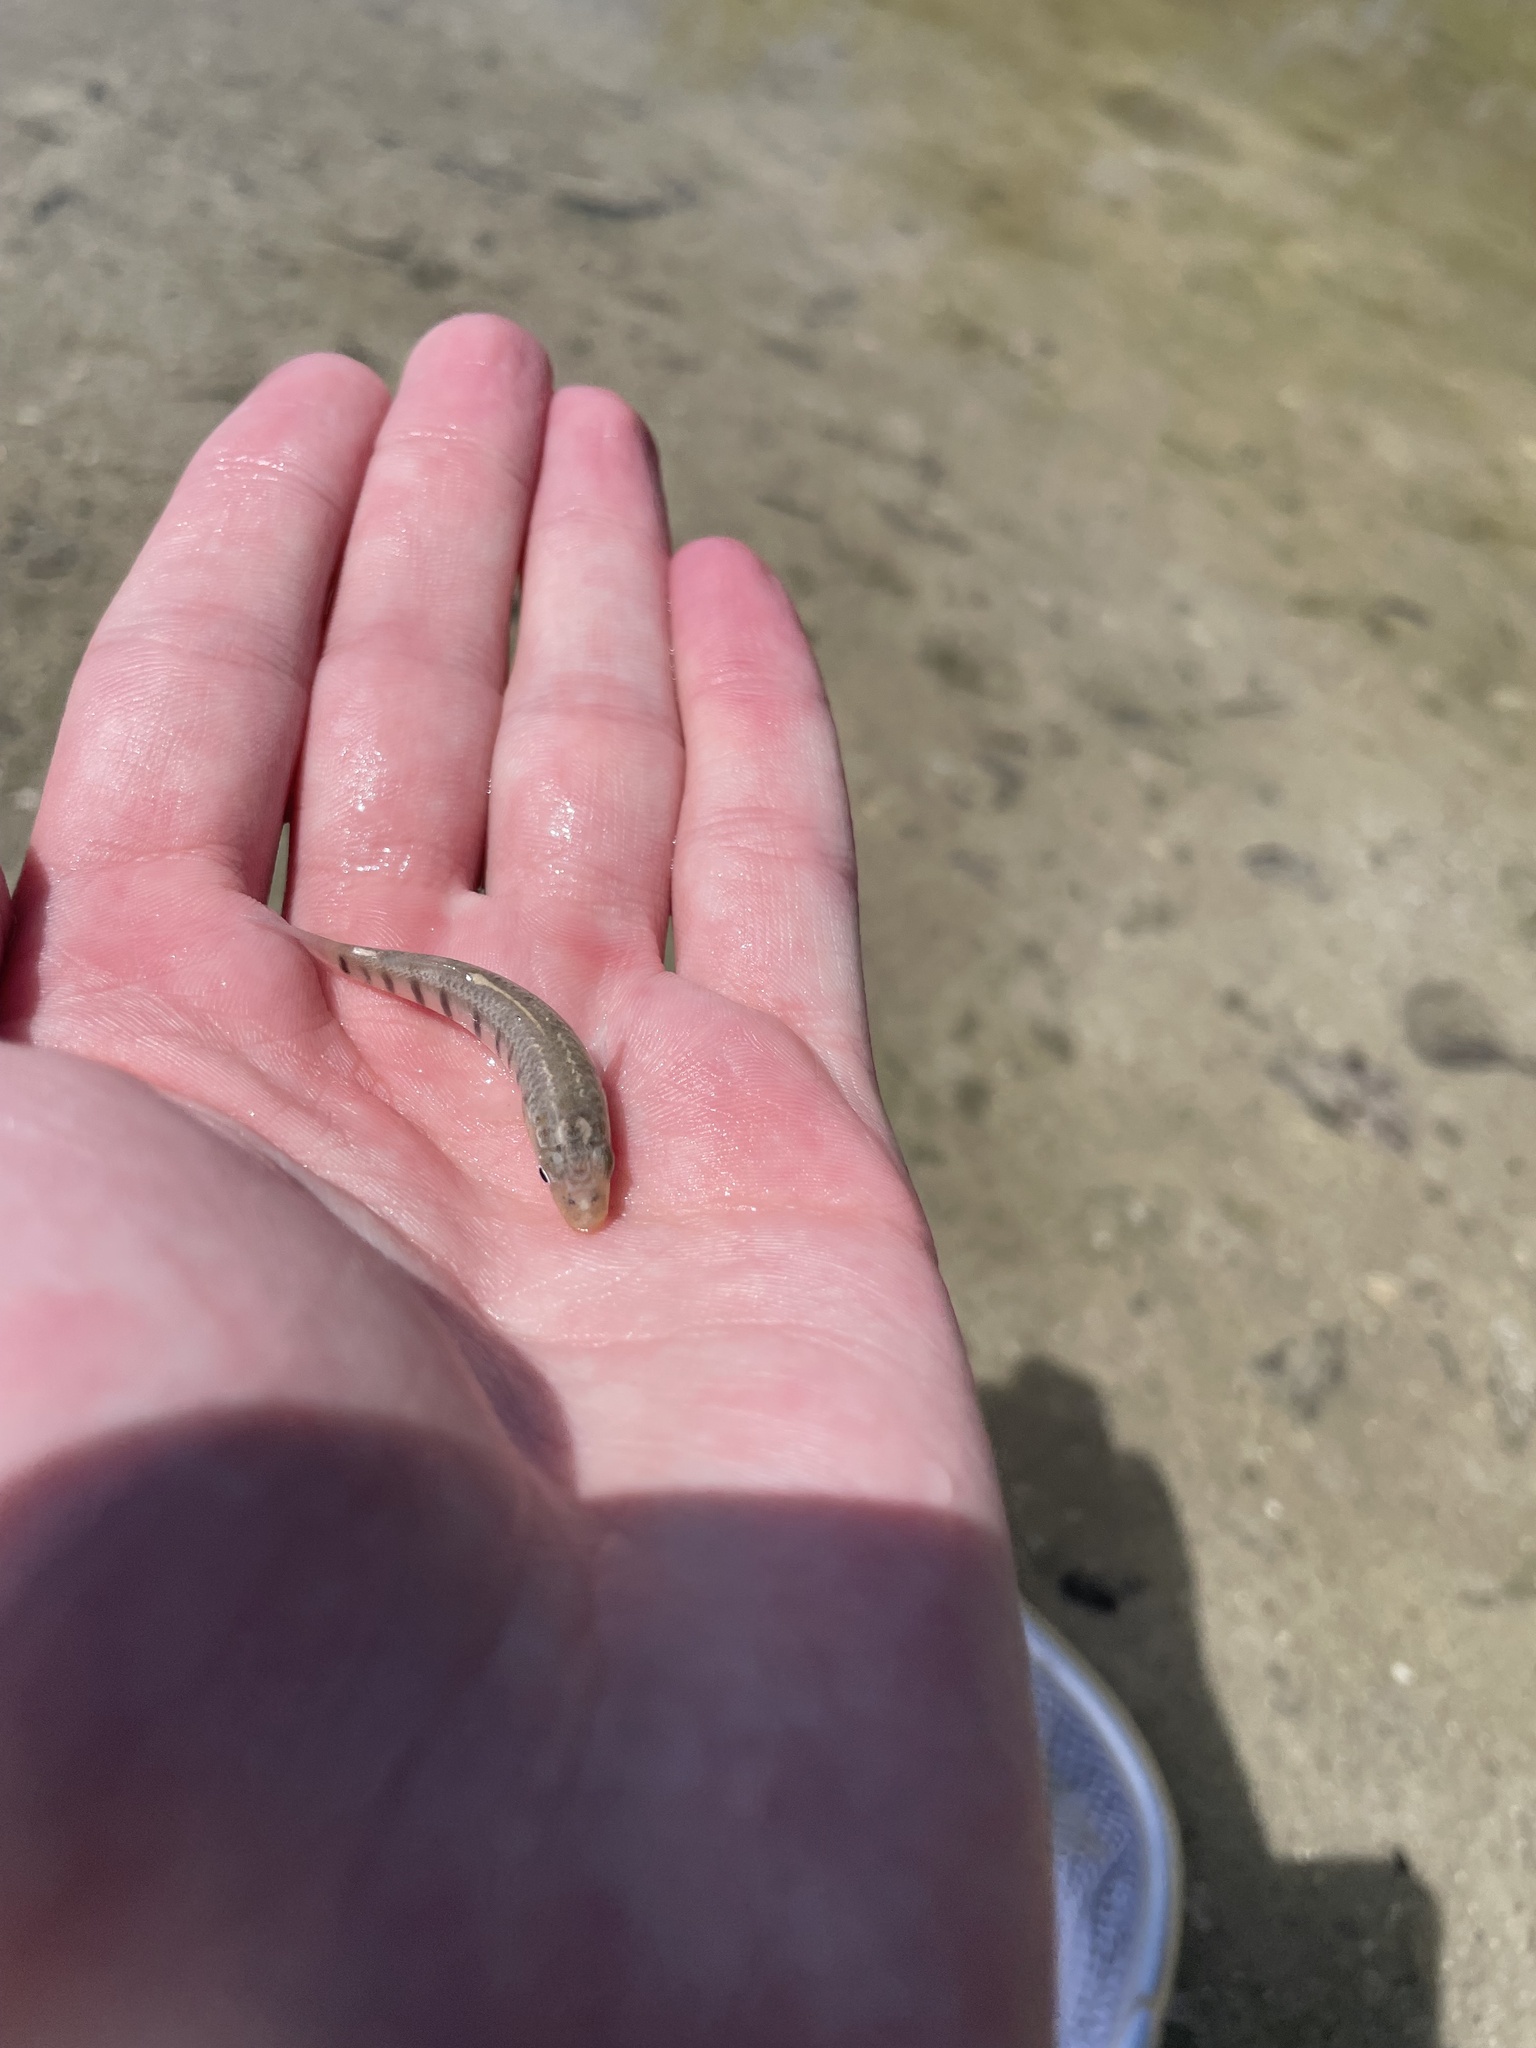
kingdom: Animalia
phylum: Chordata
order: Cyprinodontiformes
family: Fundulidae
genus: Fundulus
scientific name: Fundulus similis
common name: Longnose killifish
